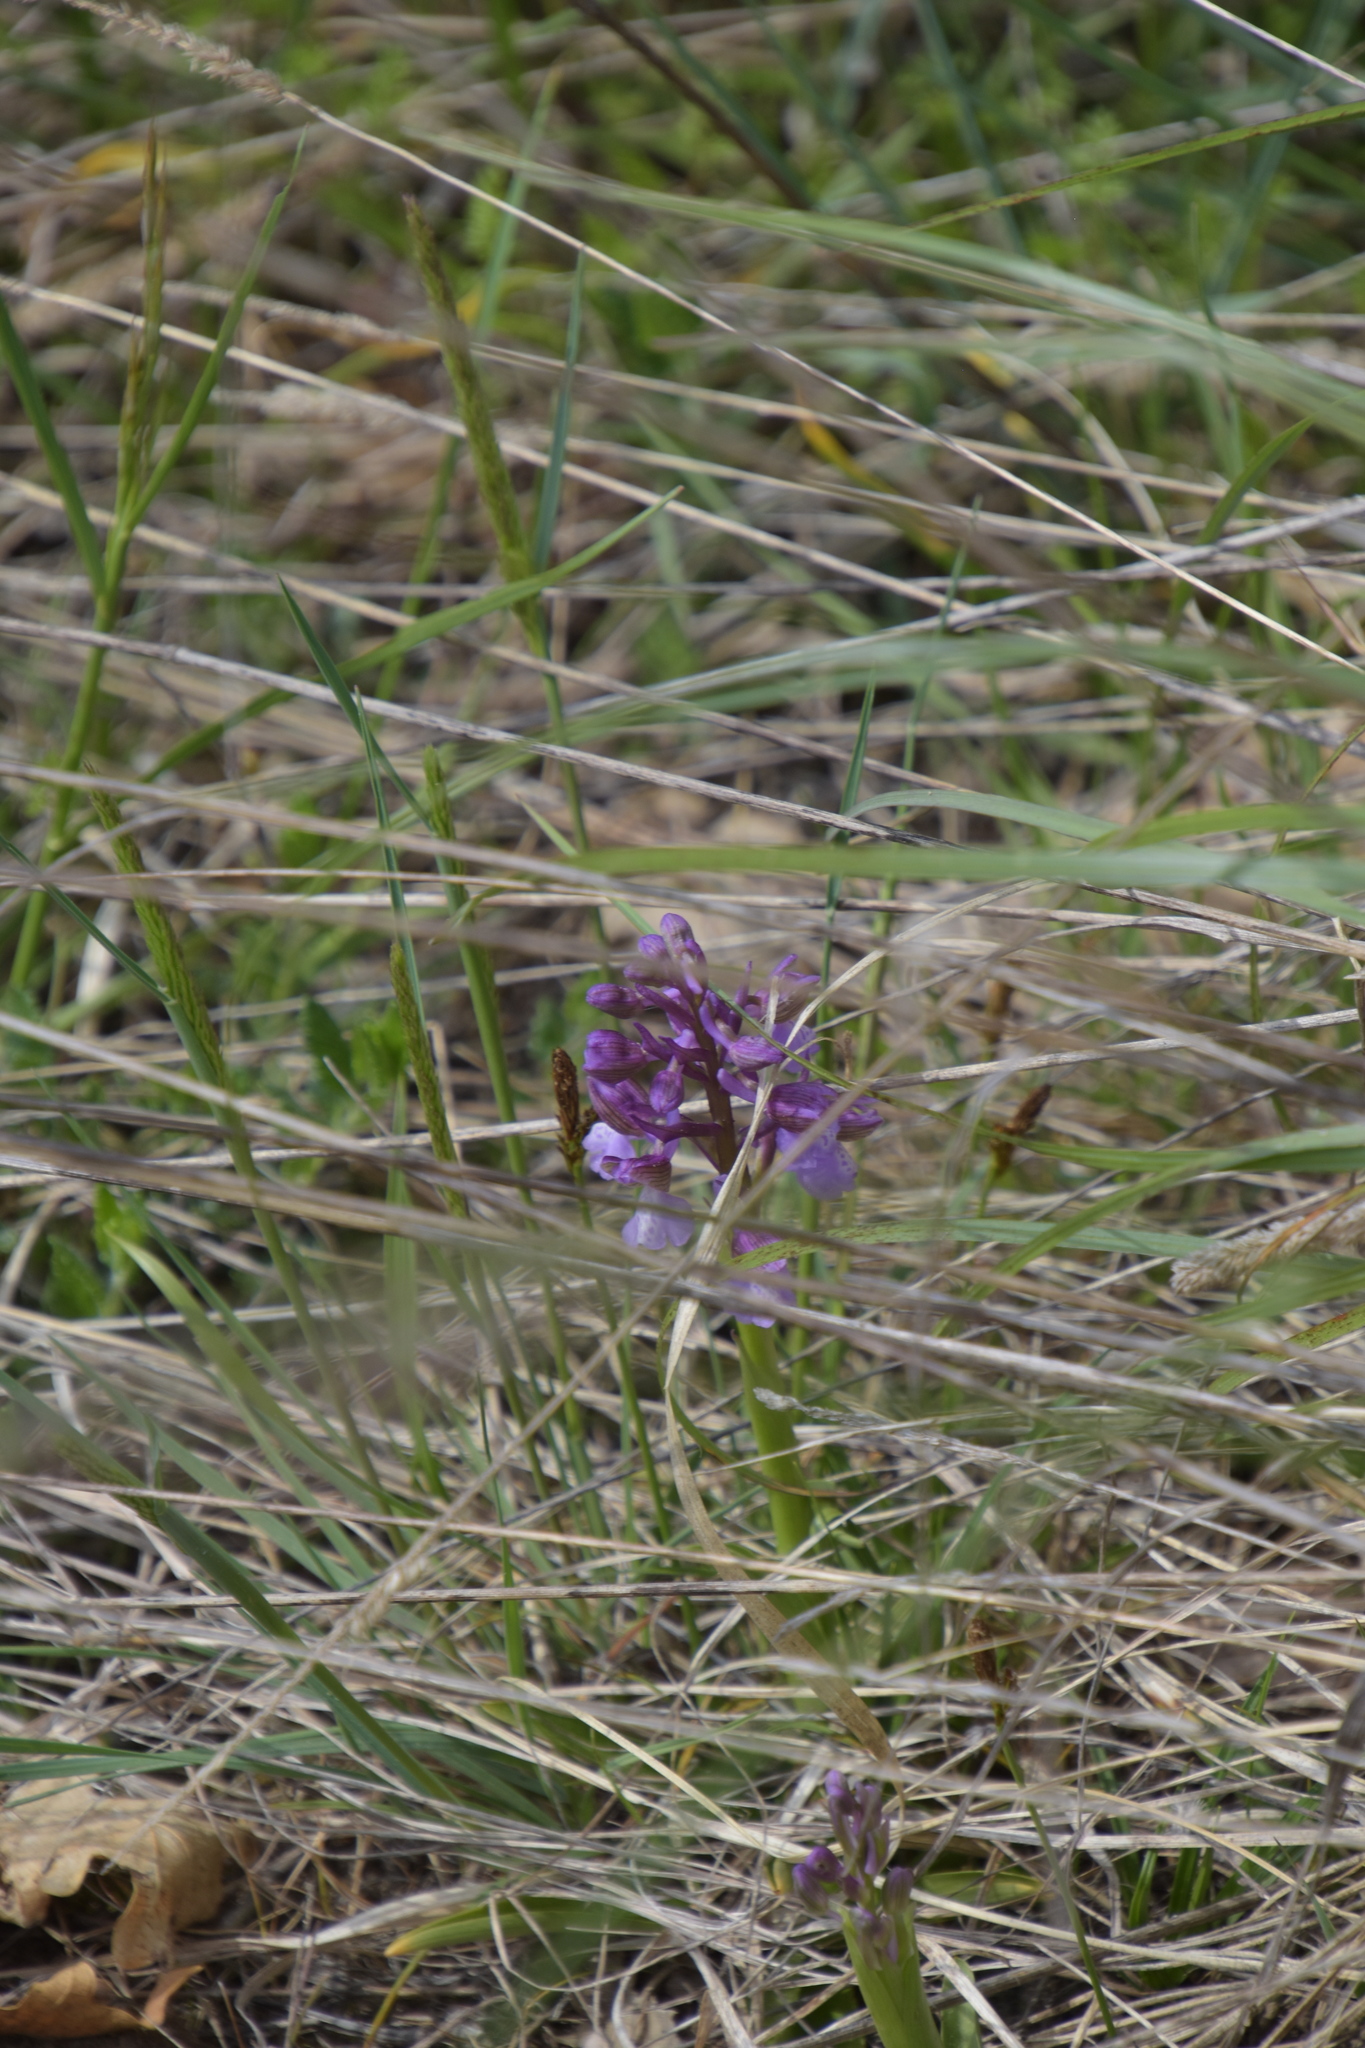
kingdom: Plantae
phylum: Tracheophyta
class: Liliopsida
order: Asparagales
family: Orchidaceae
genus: Anacamptis
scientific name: Anacamptis morio
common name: Green-winged orchid
